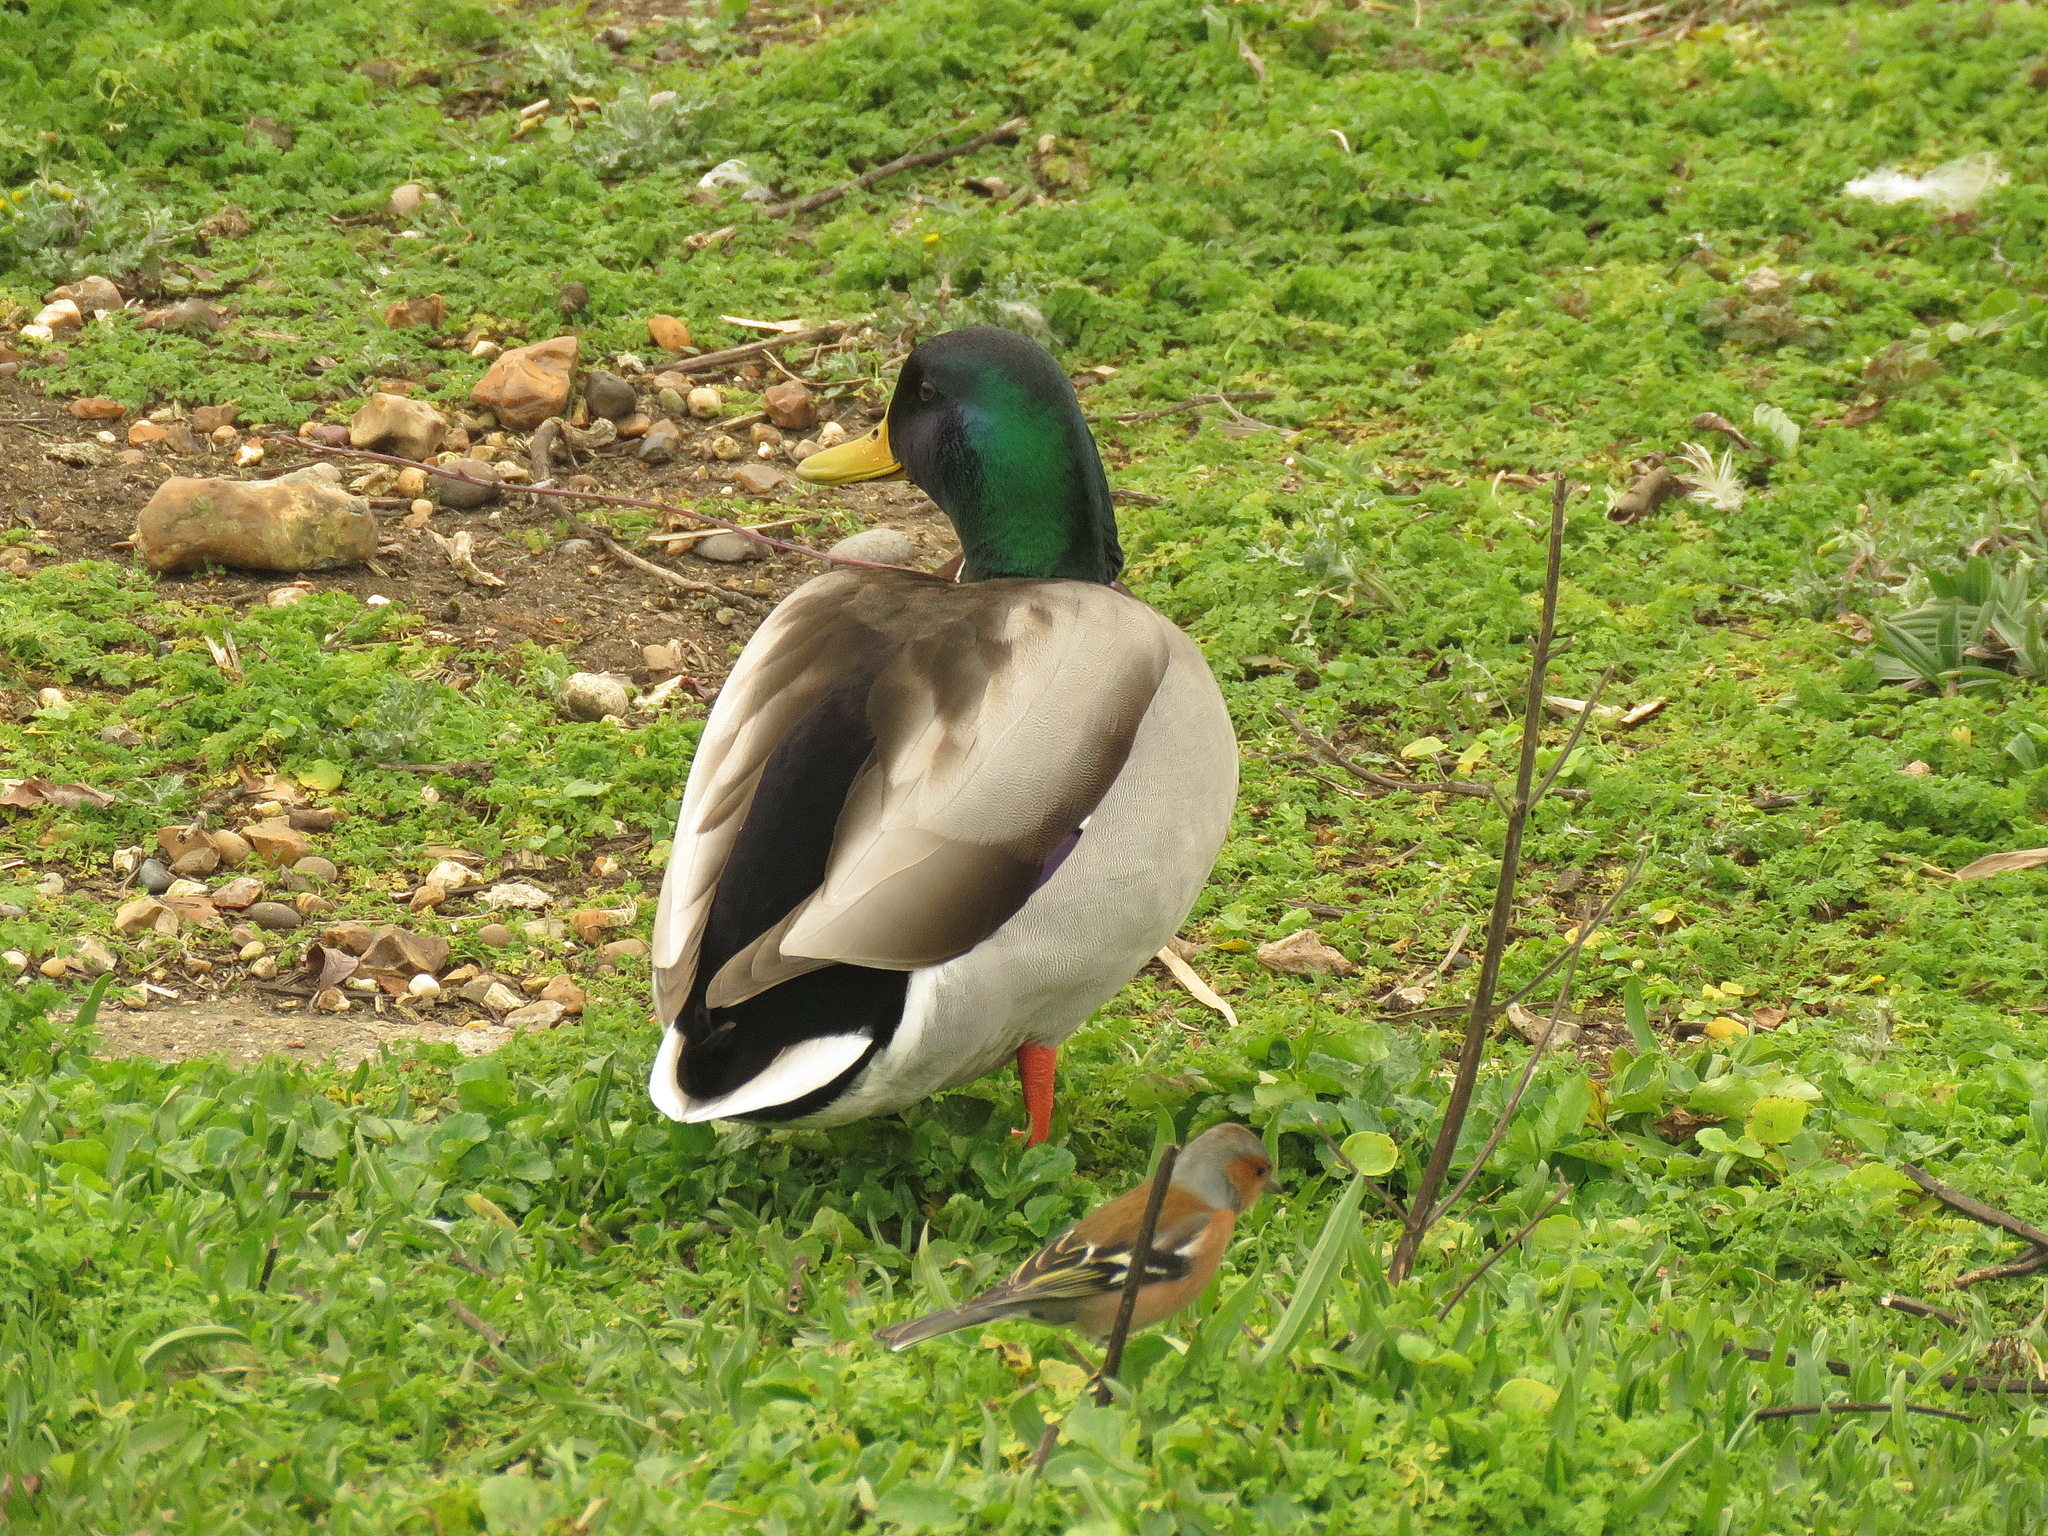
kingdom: Animalia
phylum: Chordata
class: Aves
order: Anseriformes
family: Anatidae
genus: Anas
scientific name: Anas platyrhynchos
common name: Mallard
